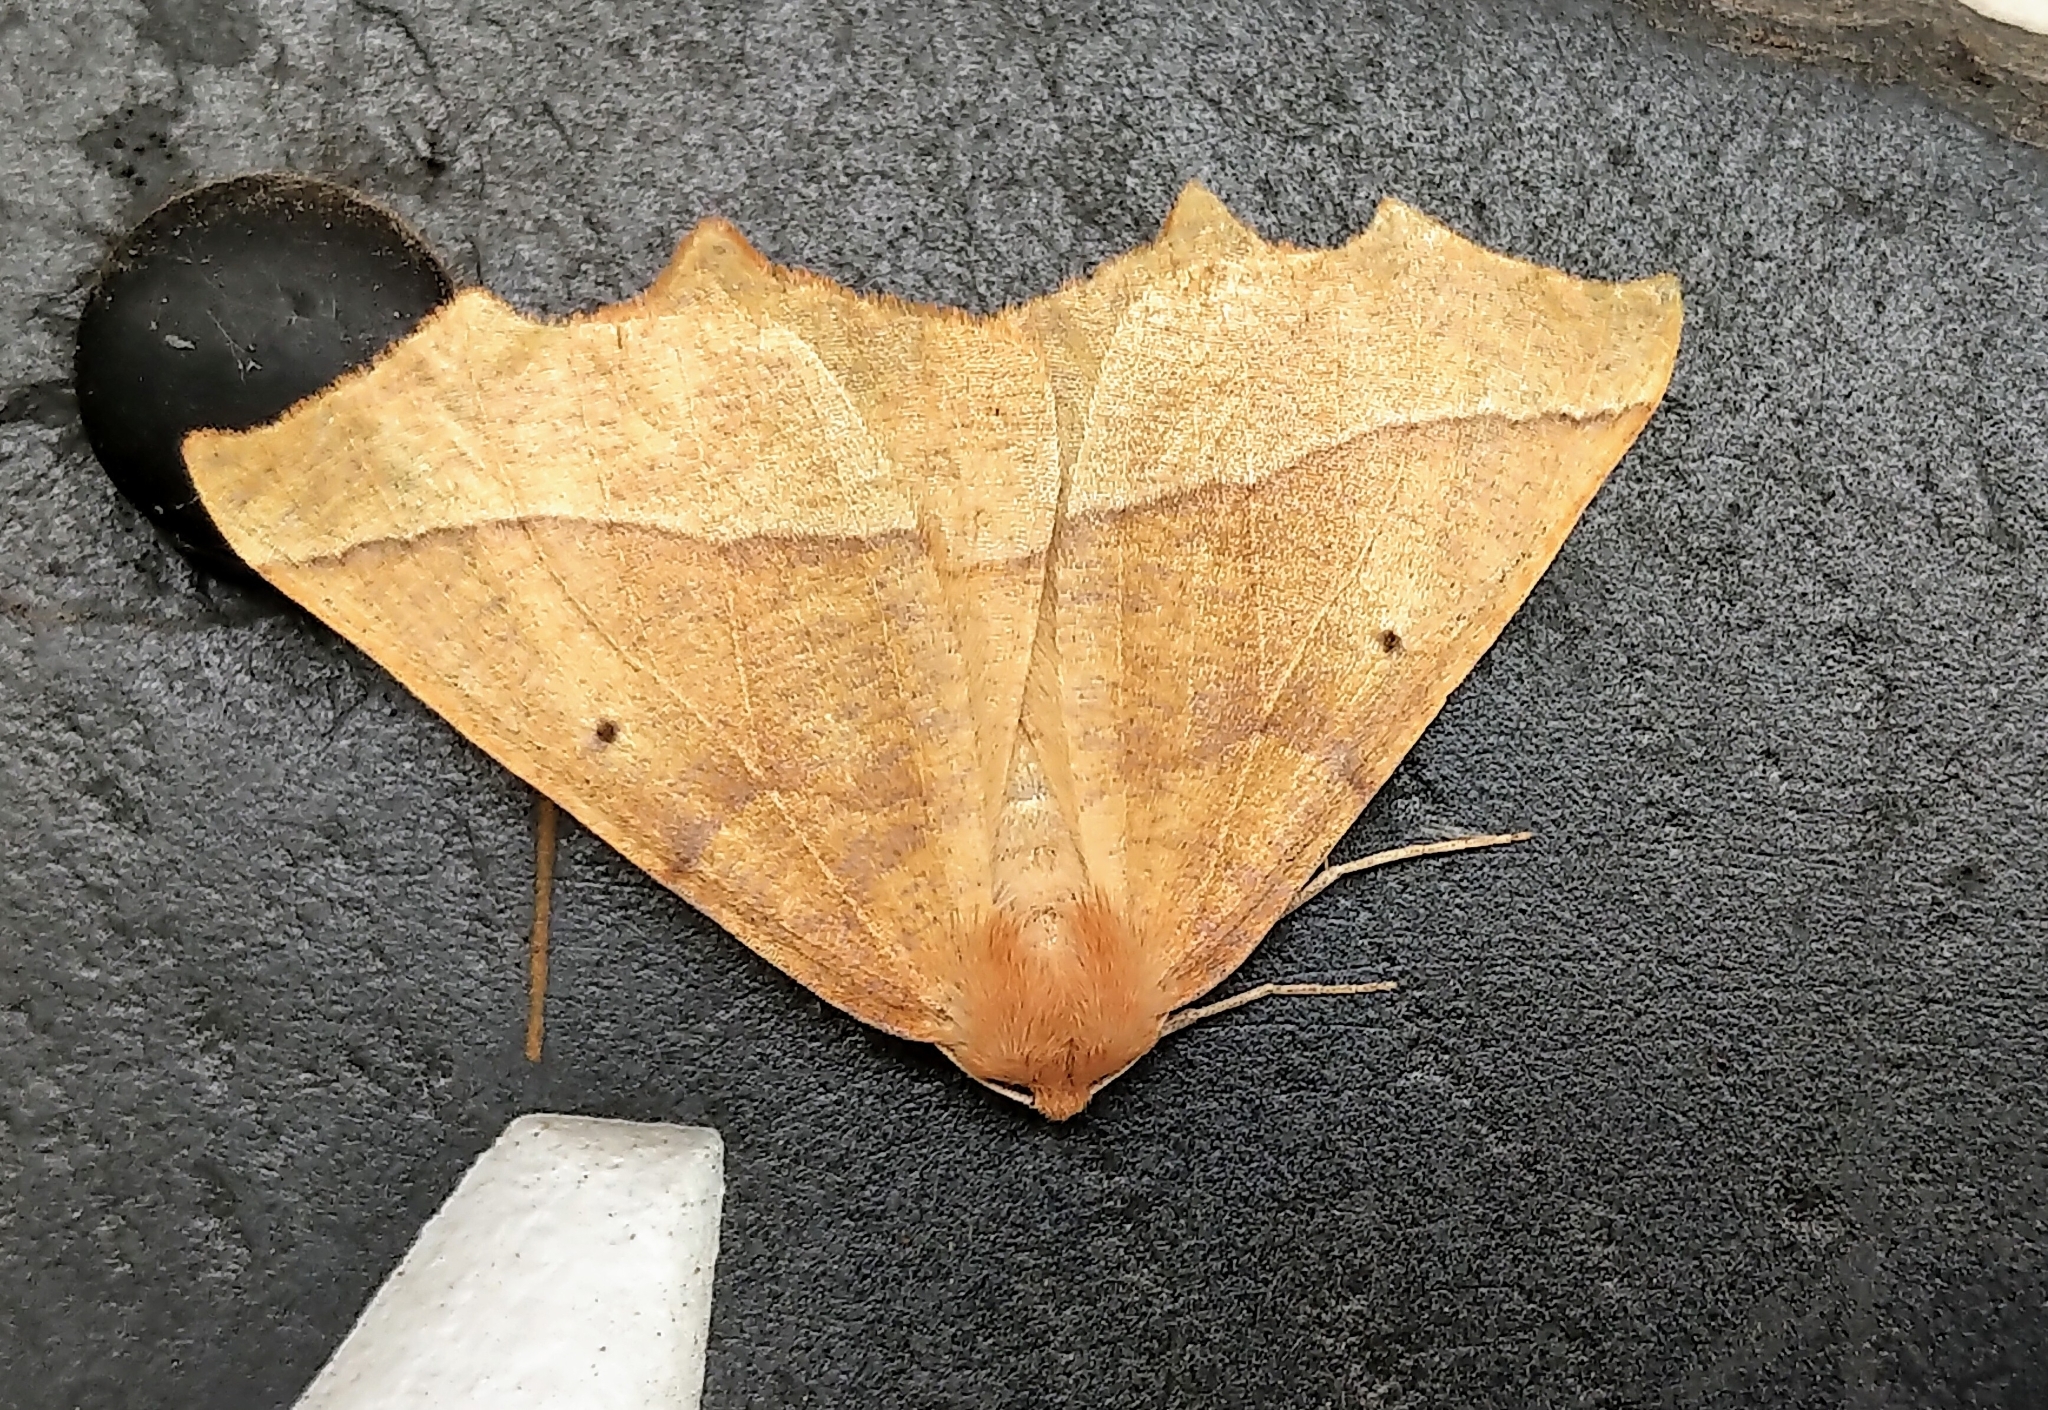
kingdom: Animalia
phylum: Arthropoda
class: Insecta
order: Lepidoptera
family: Geometridae
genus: Synaxis
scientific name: Synaxis jubararia
